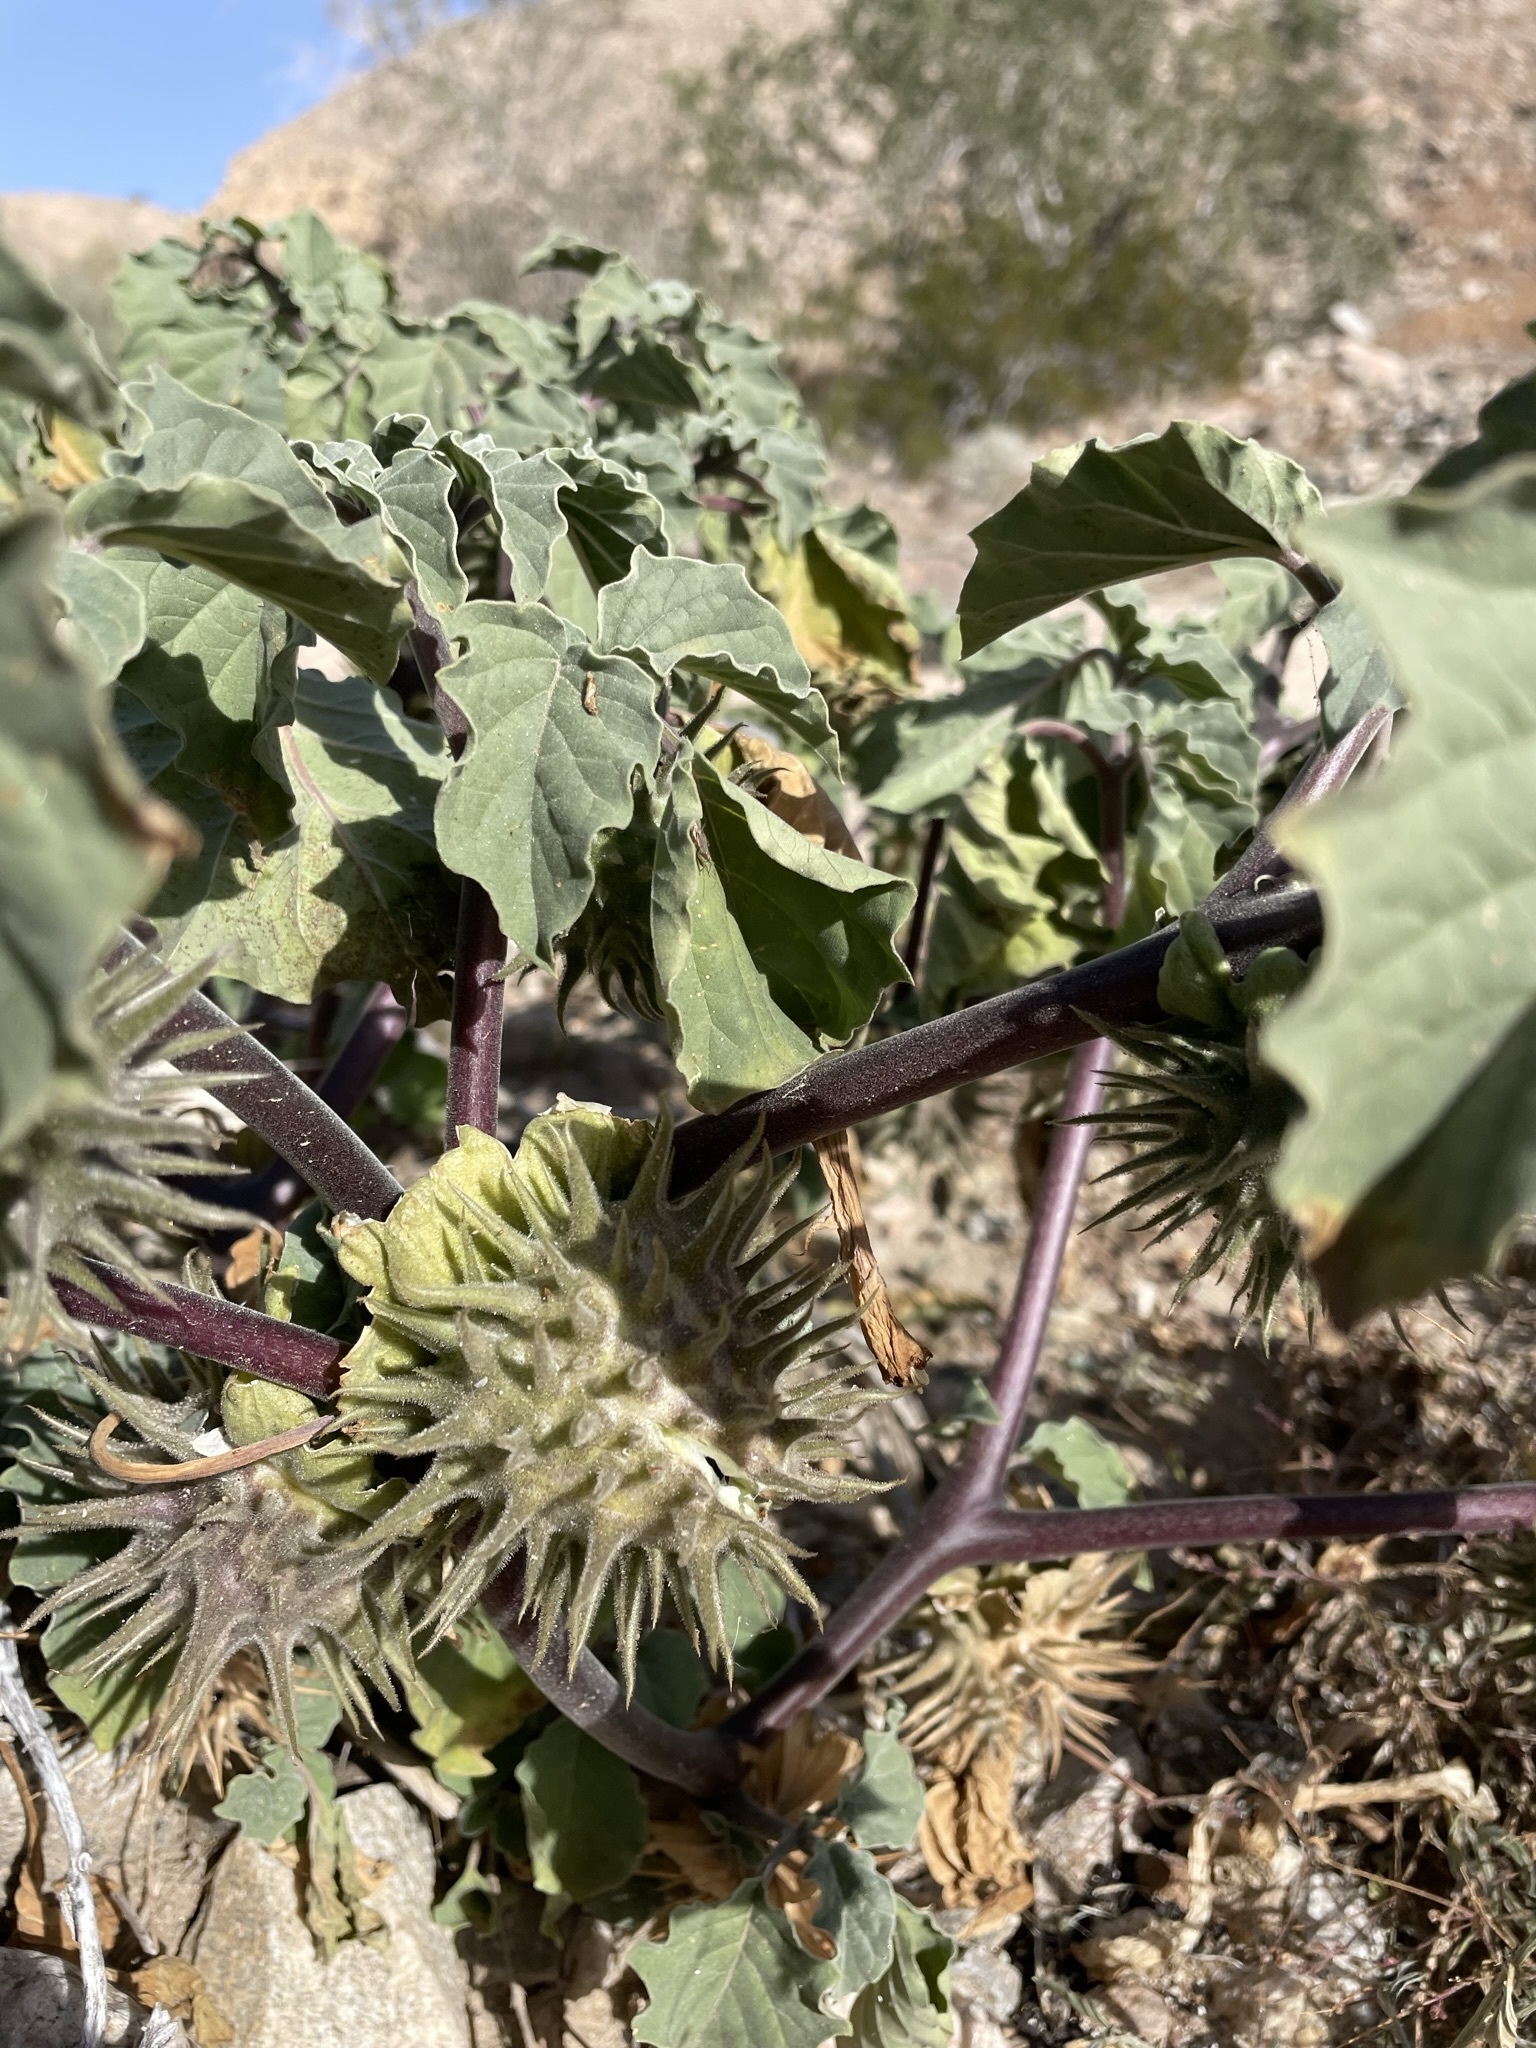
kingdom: Plantae
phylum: Tracheophyta
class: Magnoliopsida
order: Solanales
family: Solanaceae
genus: Datura
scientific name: Datura discolor
